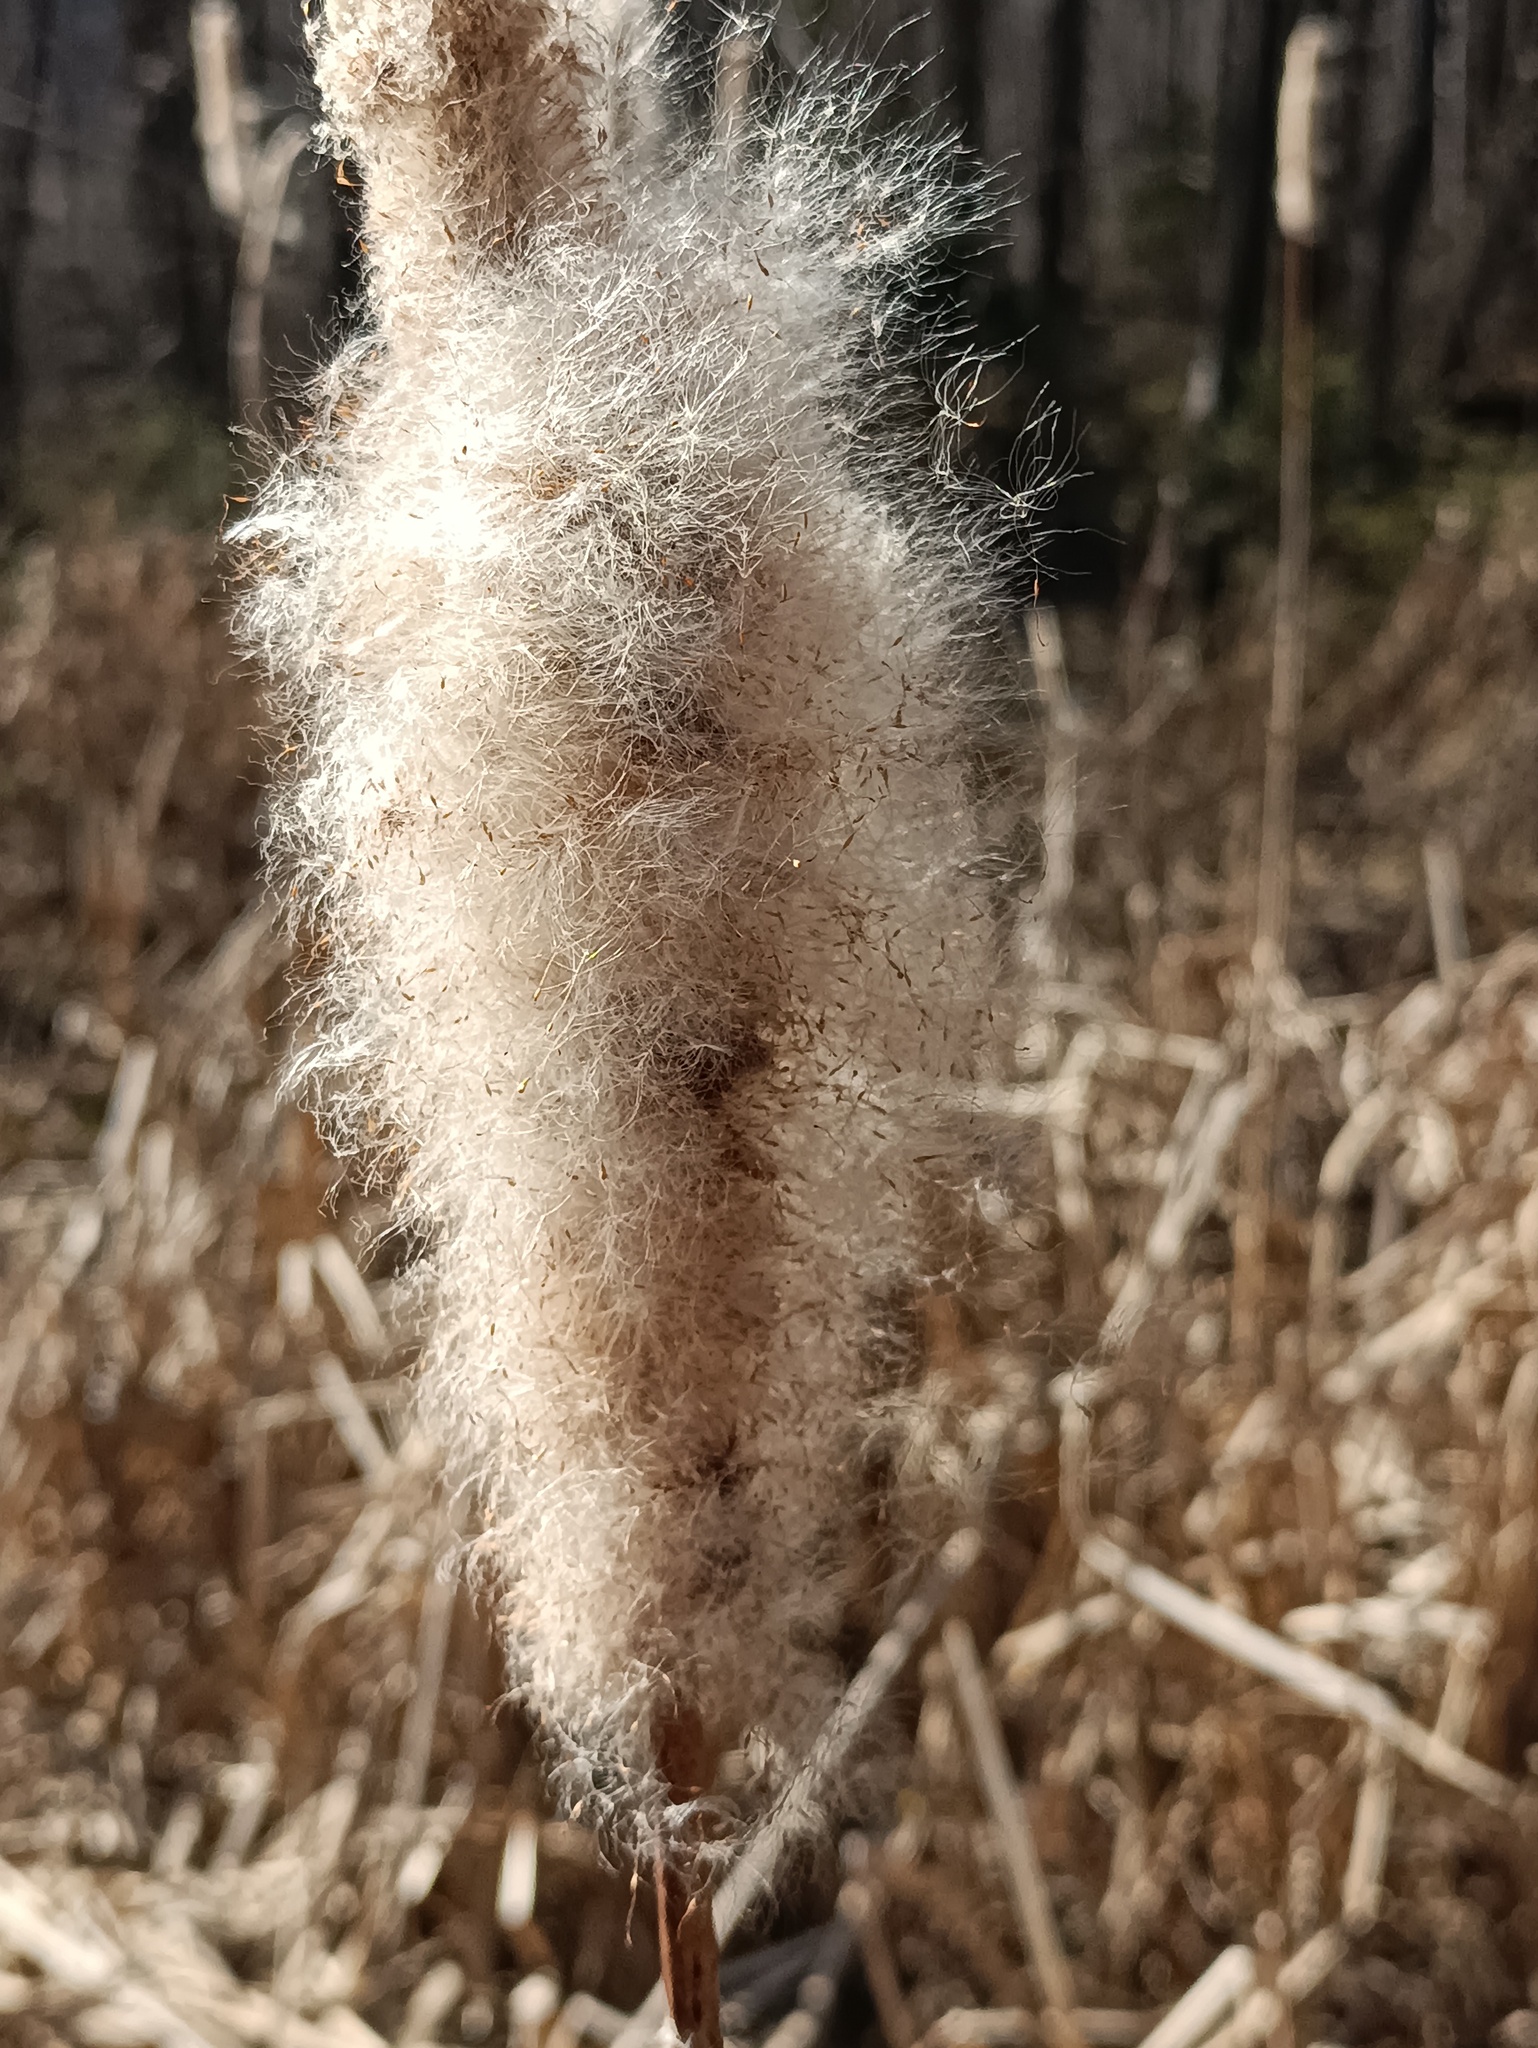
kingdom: Plantae
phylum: Tracheophyta
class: Liliopsida
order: Poales
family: Typhaceae
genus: Typha
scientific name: Typha latifolia
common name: Broadleaf cattail
